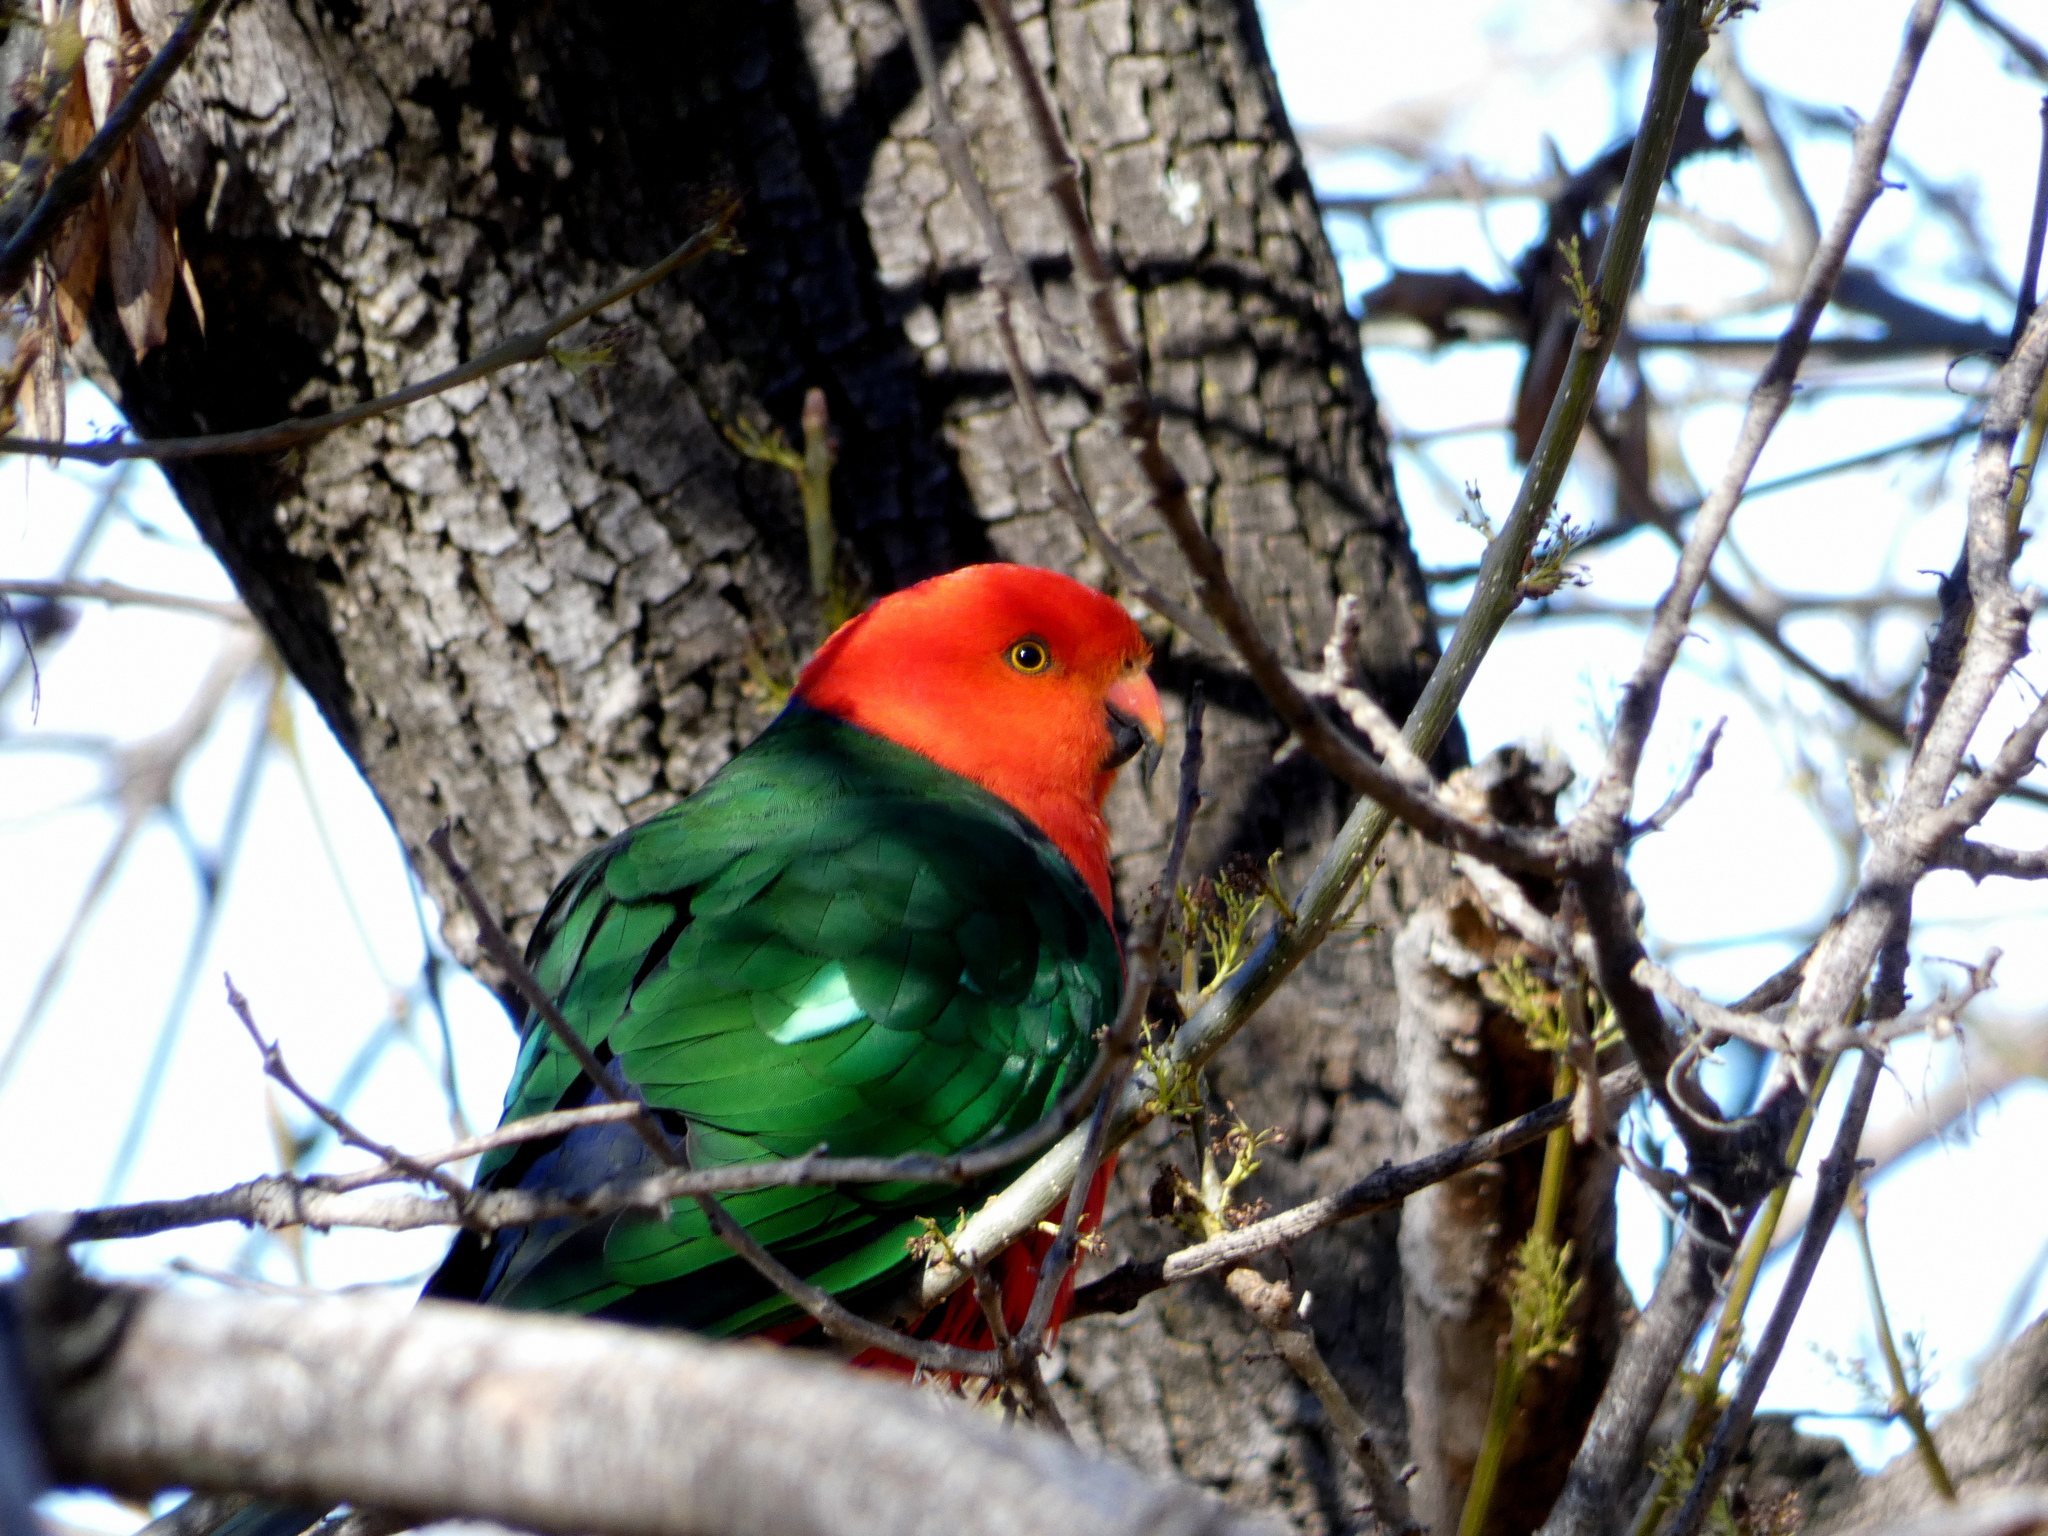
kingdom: Animalia
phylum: Chordata
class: Aves
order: Psittaciformes
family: Psittacidae
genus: Alisterus
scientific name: Alisterus scapularis
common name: Australian king parrot
